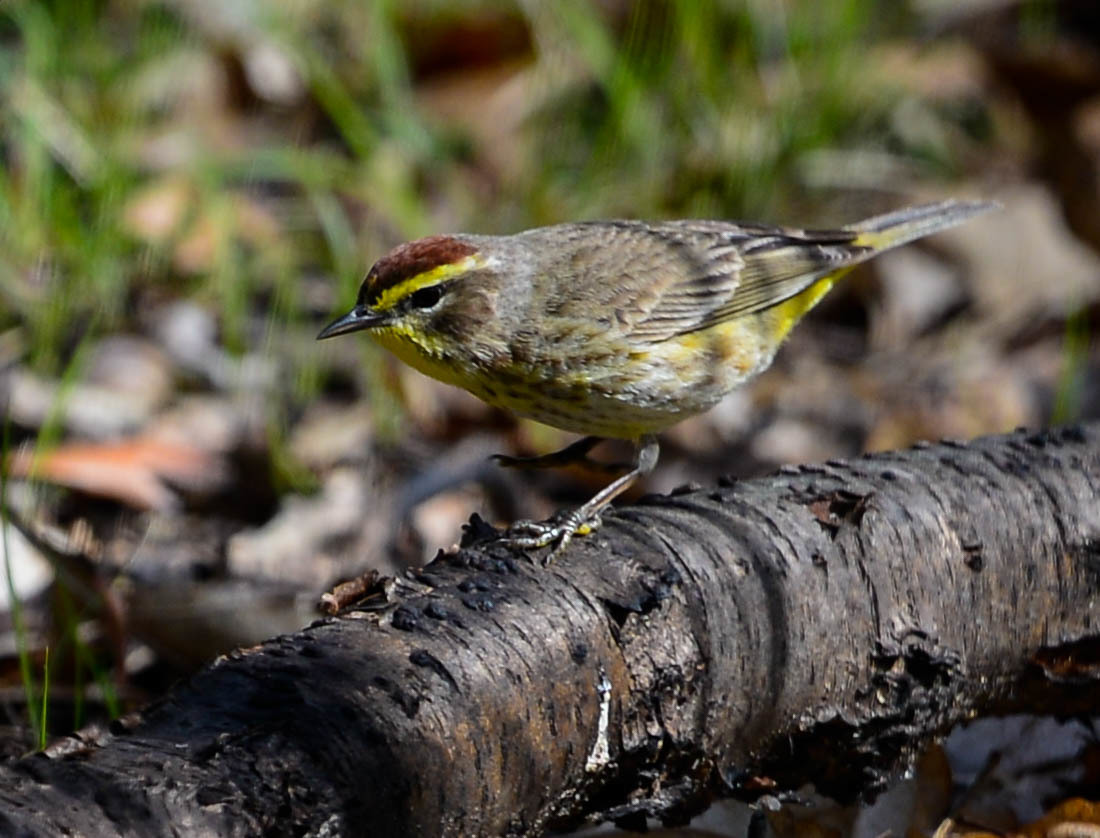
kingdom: Animalia
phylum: Chordata
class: Aves
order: Passeriformes
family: Parulidae
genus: Setophaga
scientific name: Setophaga palmarum
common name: Palm warbler
